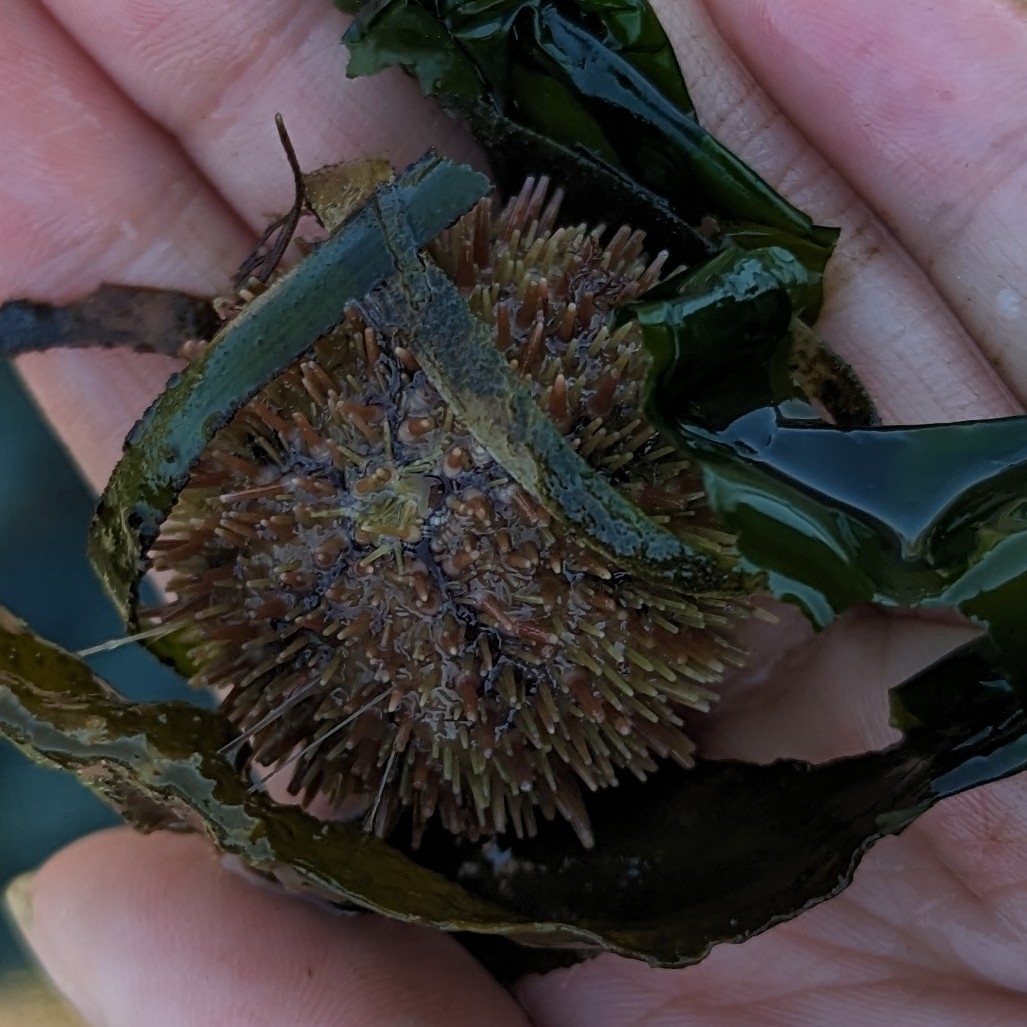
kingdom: Animalia
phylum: Echinodermata
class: Echinoidea
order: Camarodonta
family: Strongylocentrotidae
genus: Strongylocentrotus
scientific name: Strongylocentrotus droebachiensis
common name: Northern sea urchin
